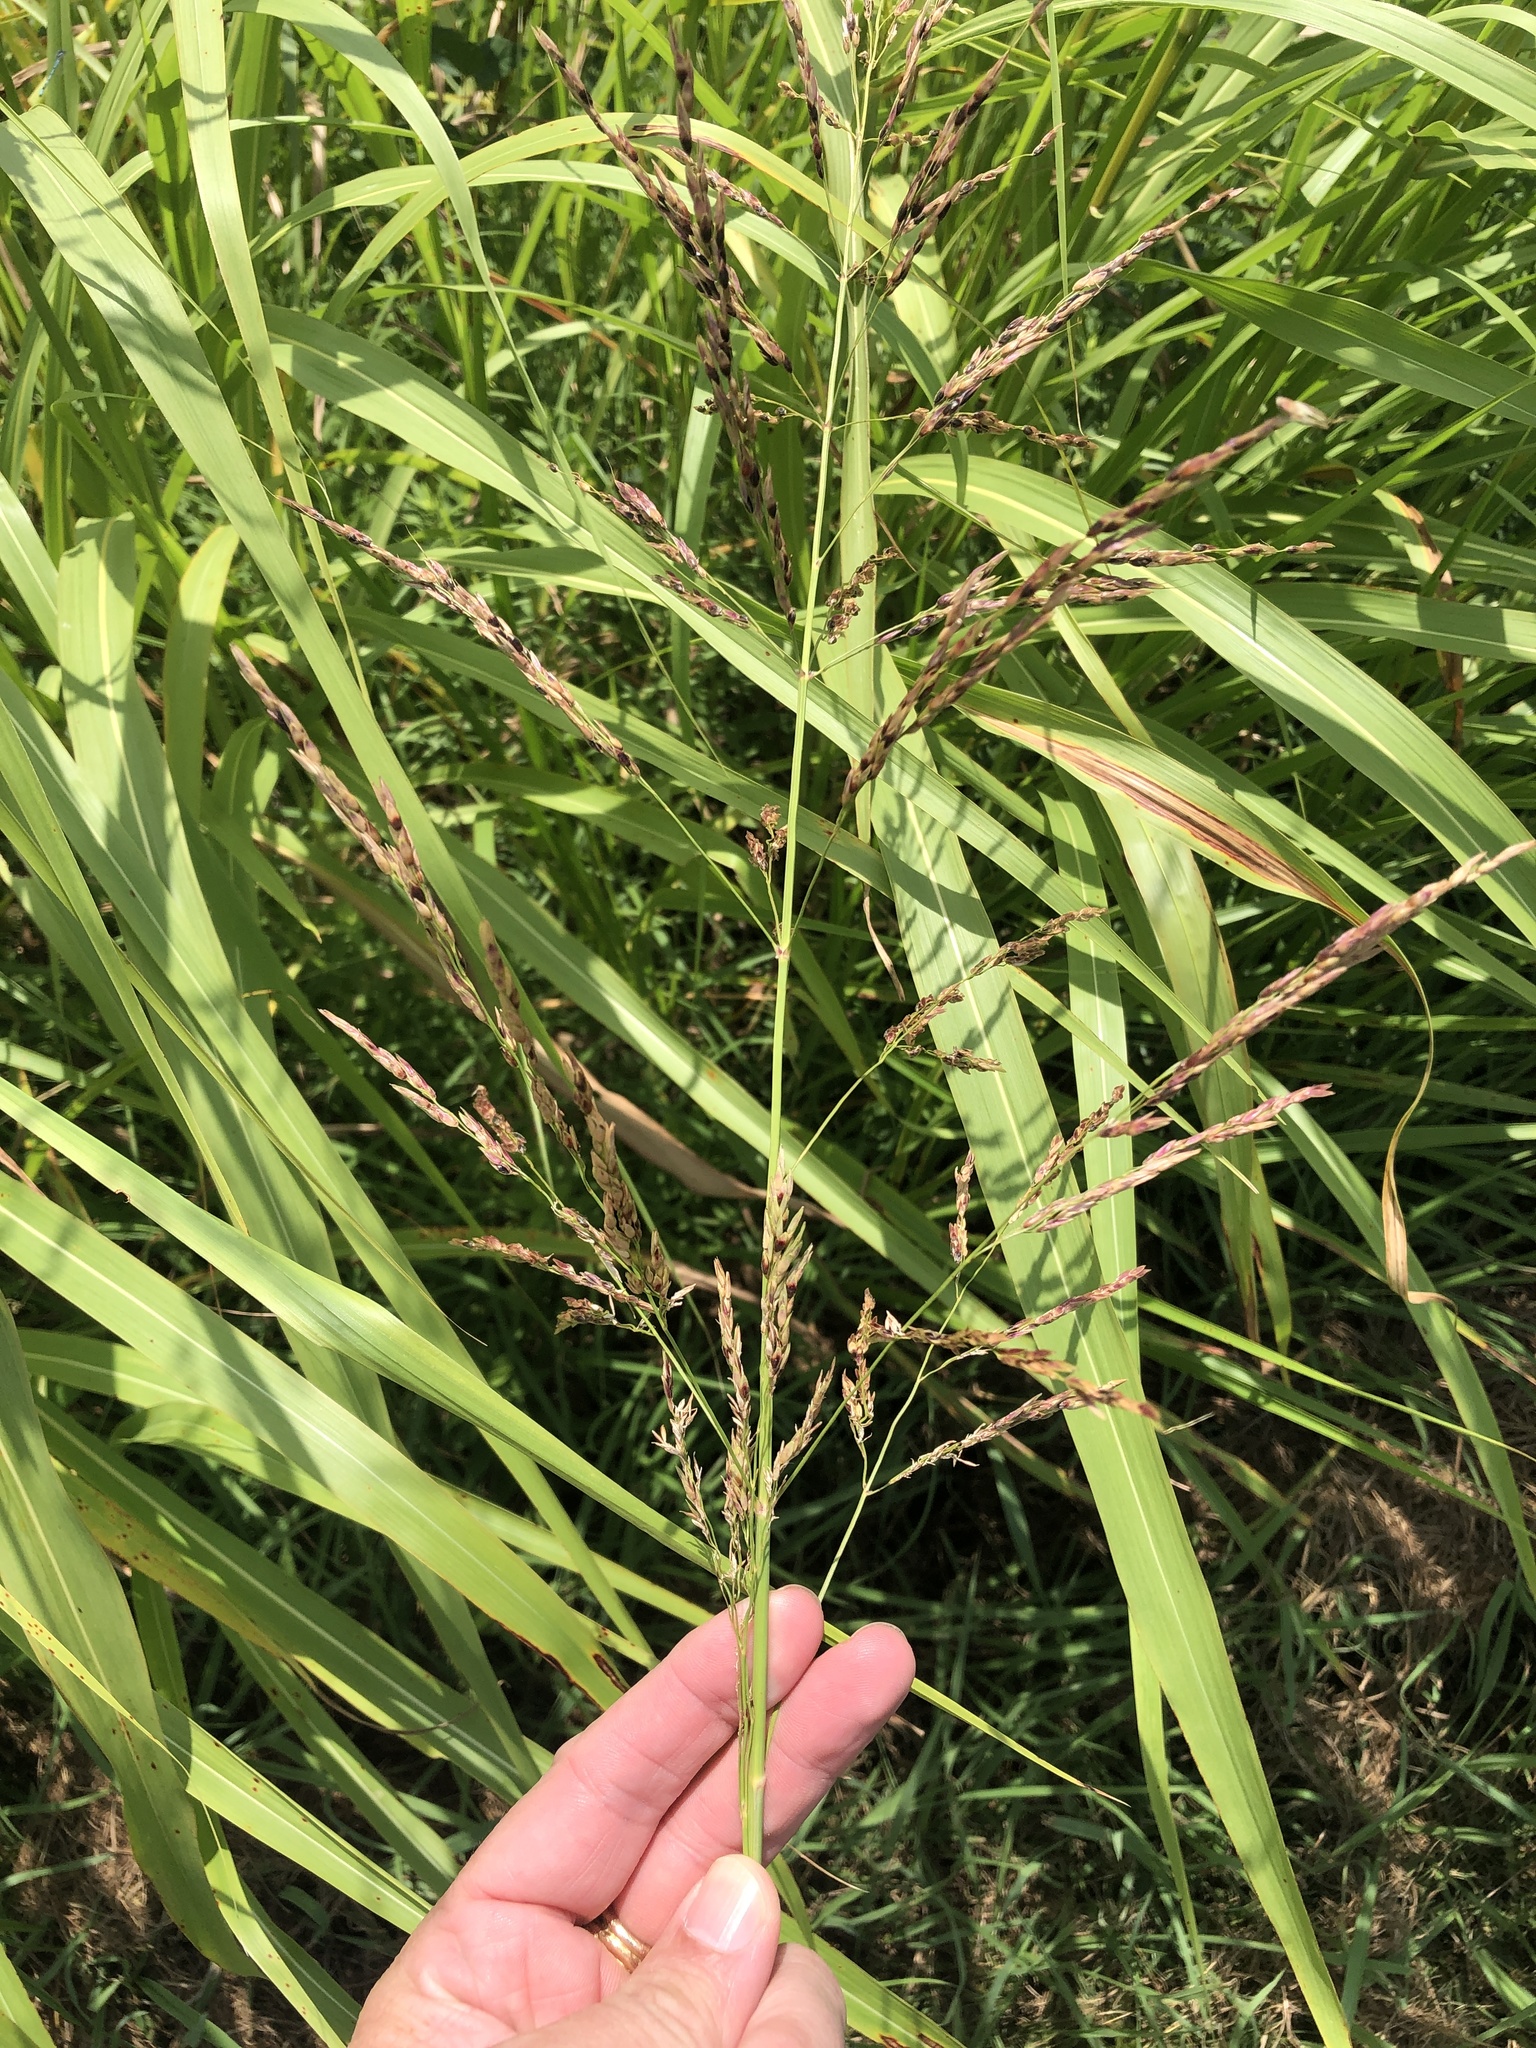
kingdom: Plantae
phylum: Tracheophyta
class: Liliopsida
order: Poales
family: Poaceae
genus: Sorghum
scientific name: Sorghum halepense
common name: Johnson-grass
